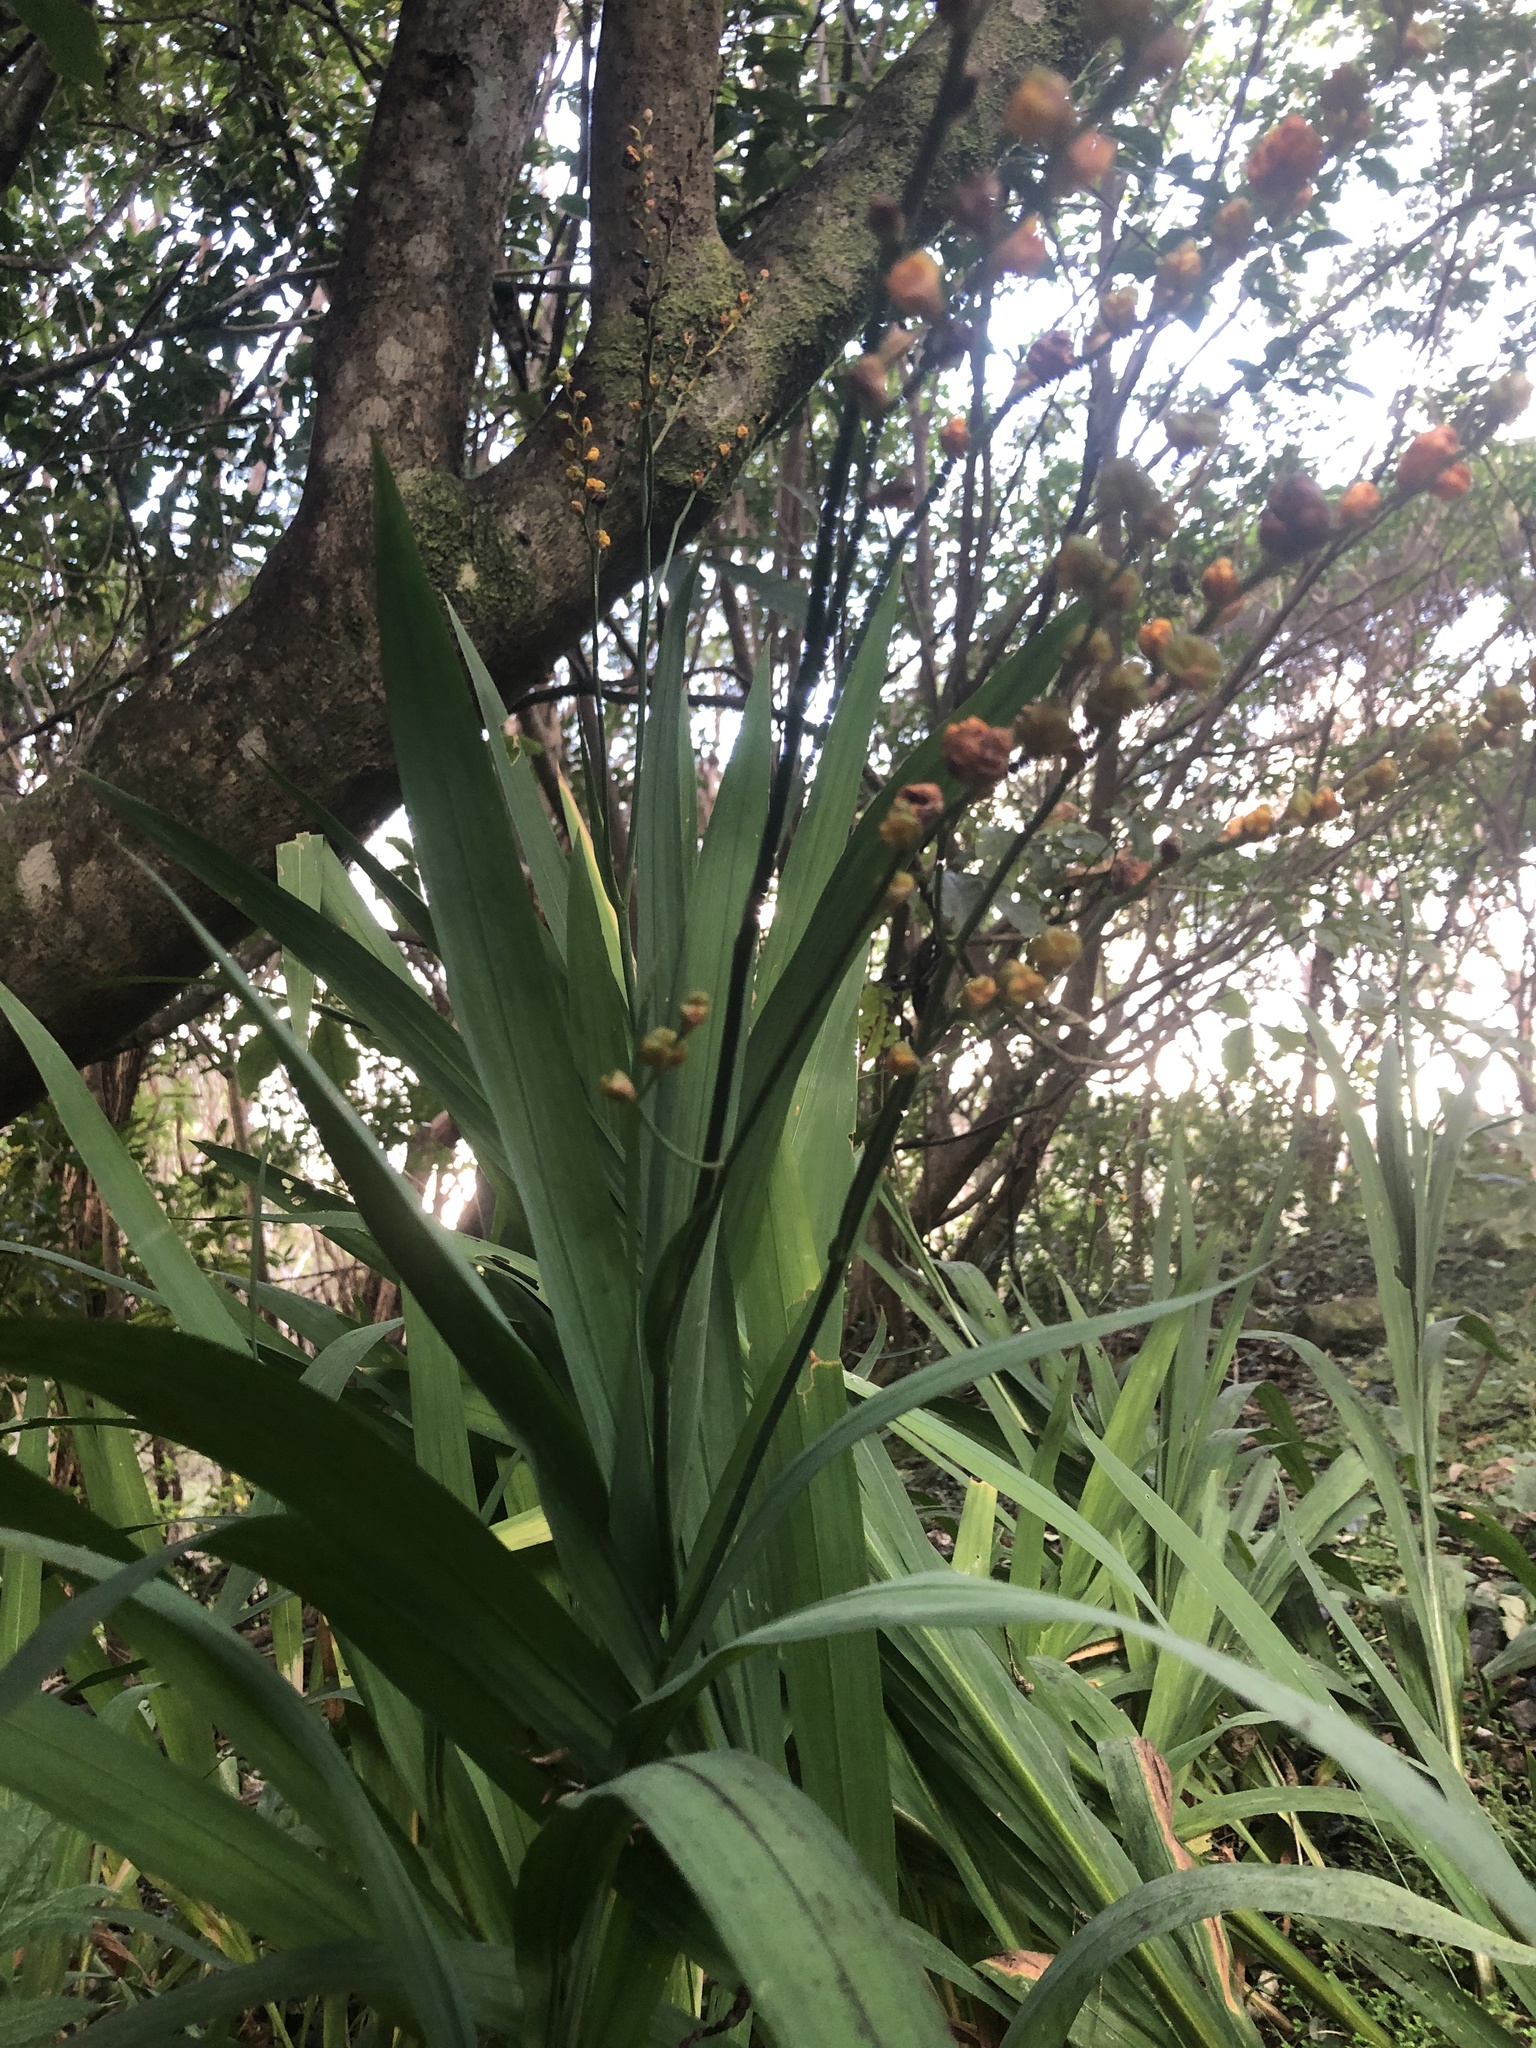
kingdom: Plantae
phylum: Tracheophyta
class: Liliopsida
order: Asparagales
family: Iridaceae
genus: Crocosmia
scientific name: Crocosmia crocosmiiflora
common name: Montbretia
